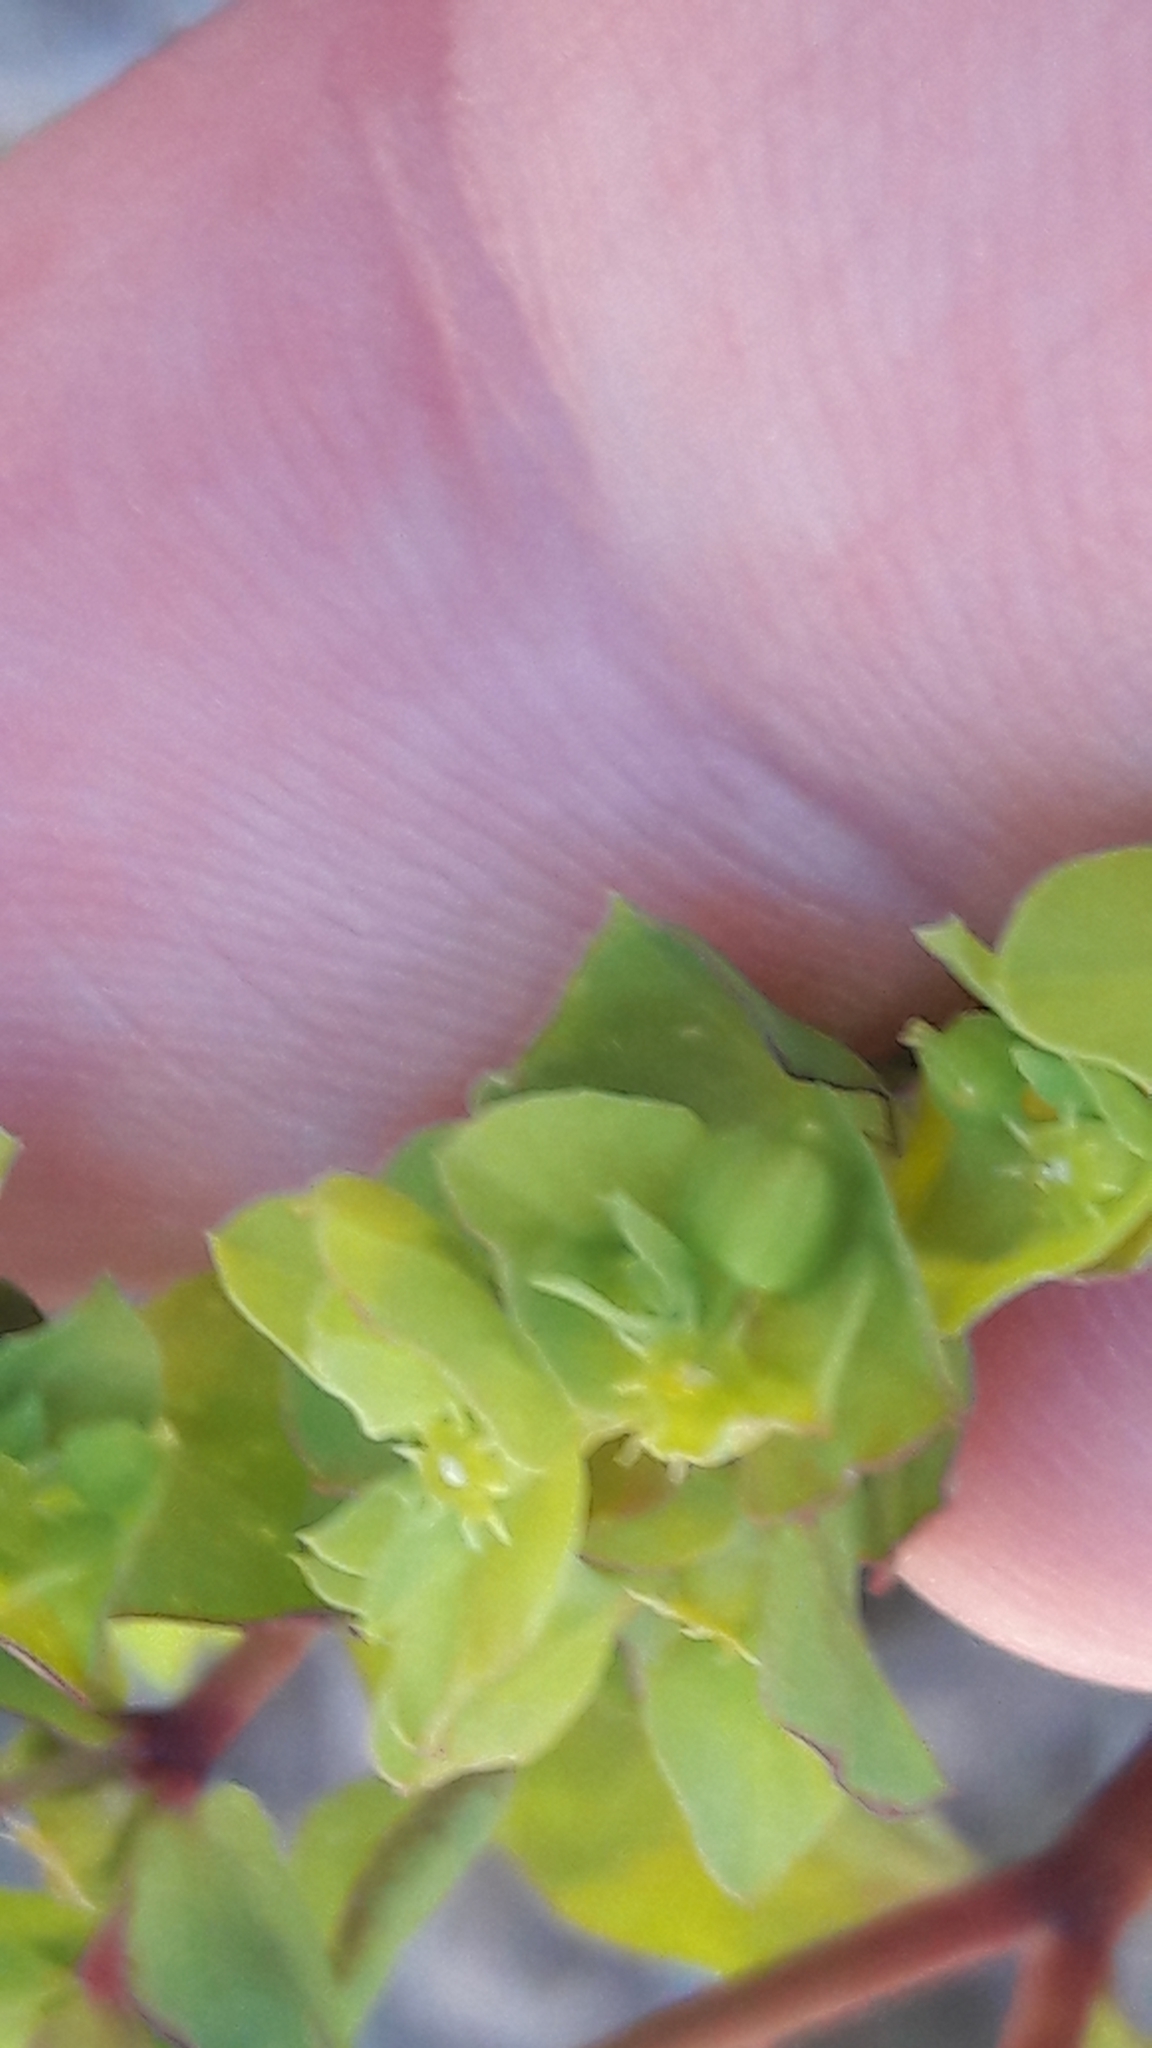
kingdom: Plantae
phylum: Tracheophyta
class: Magnoliopsida
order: Malpighiales
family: Euphorbiaceae
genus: Euphorbia
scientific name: Euphorbia peplus
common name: Petty spurge
